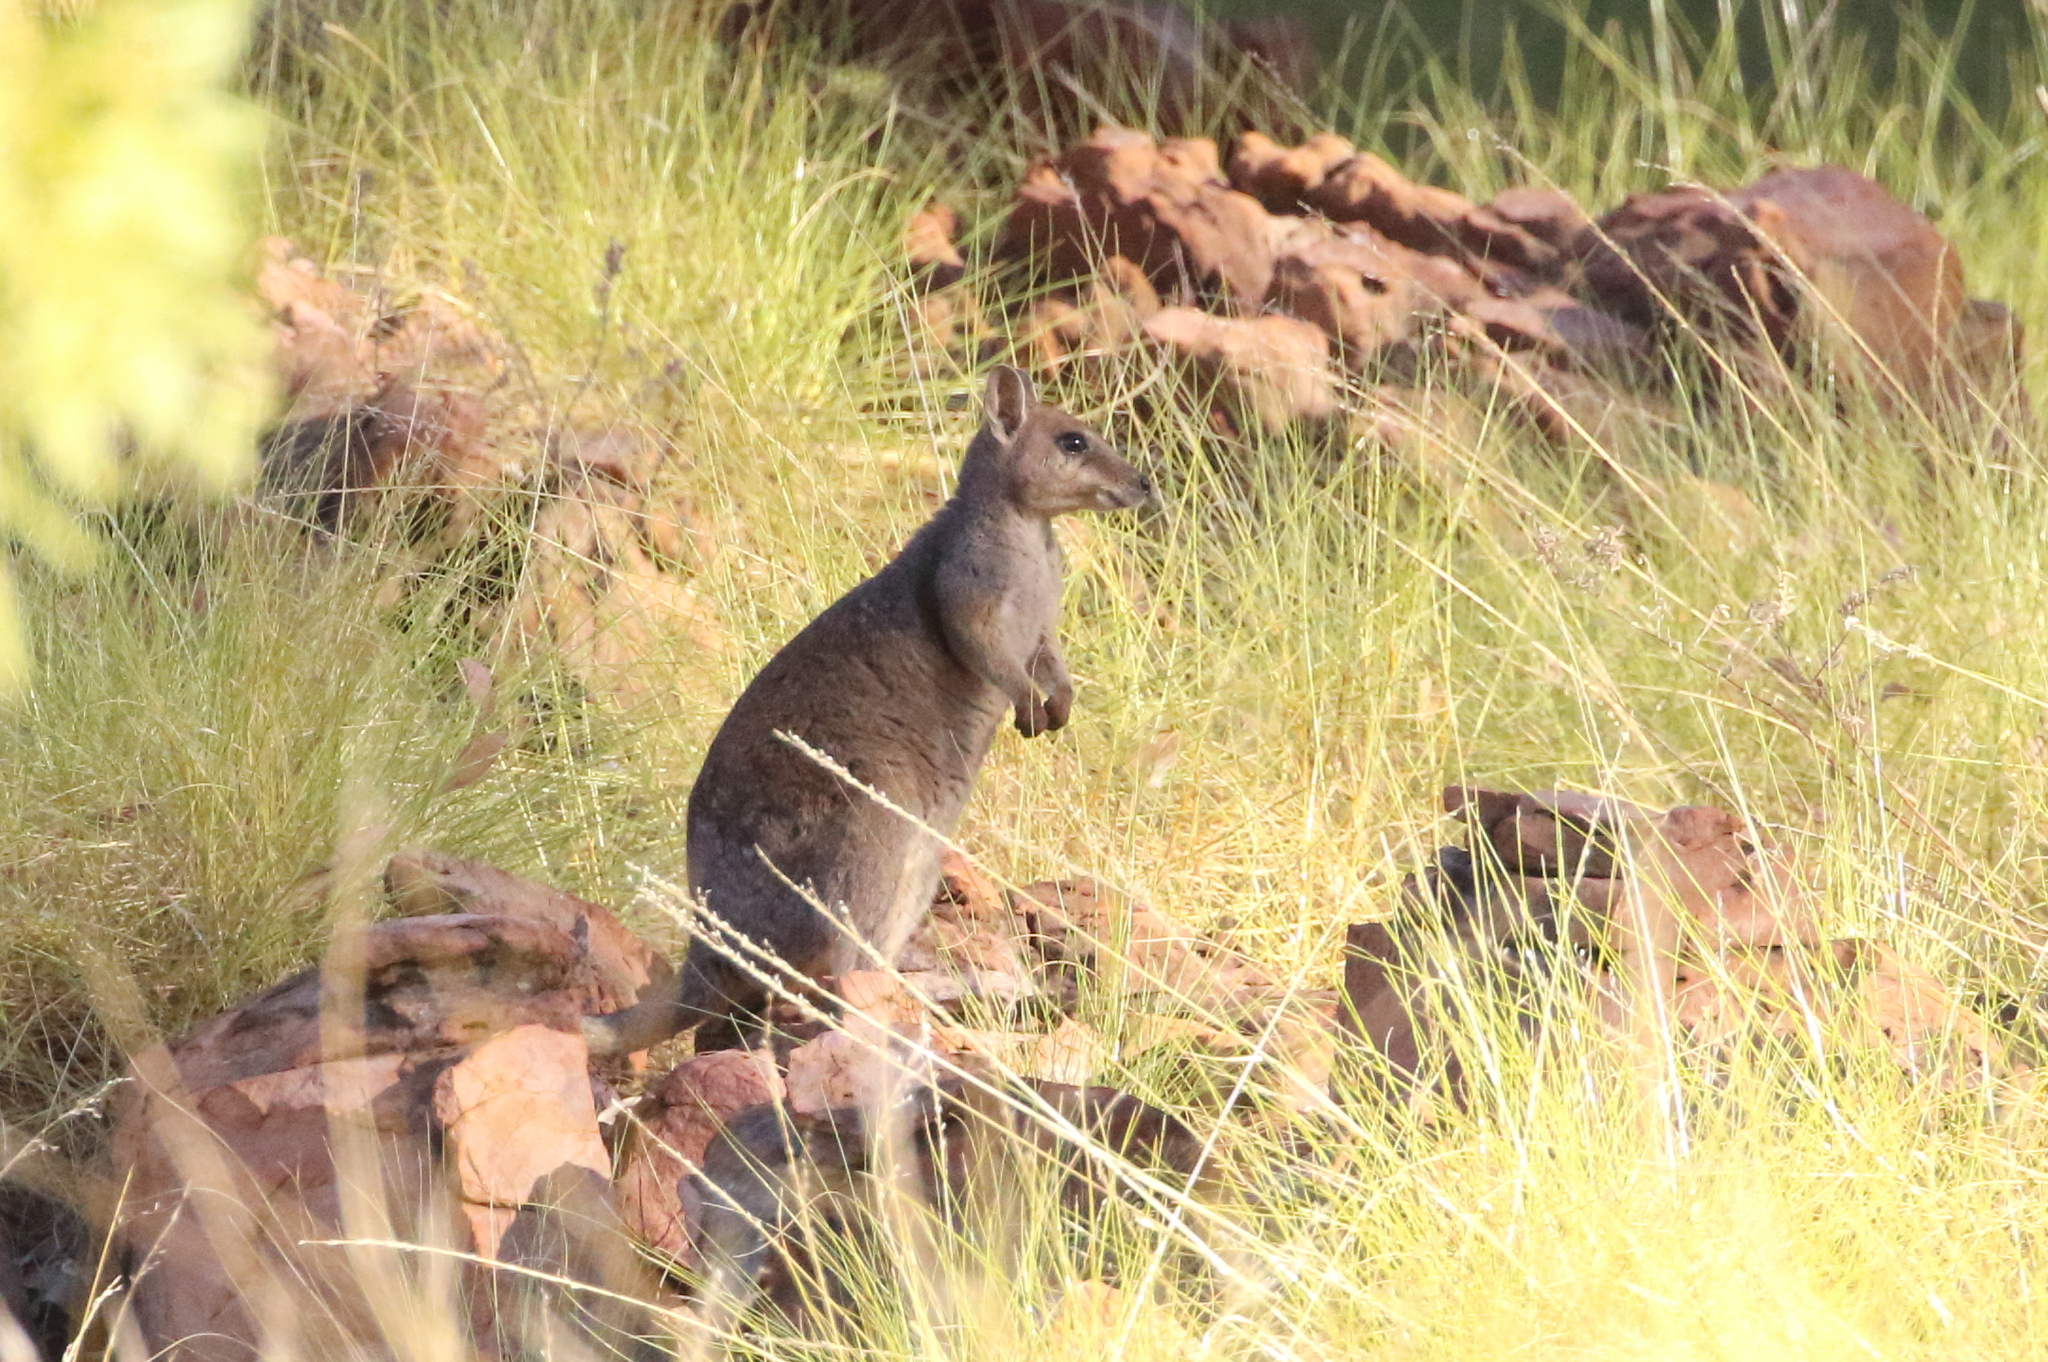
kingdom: Animalia
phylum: Chordata
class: Mammalia
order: Diprotodontia
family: Macropodidae
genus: Petrogale
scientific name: Petrogale brachyotis
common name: Short-eared rock-wallaby
